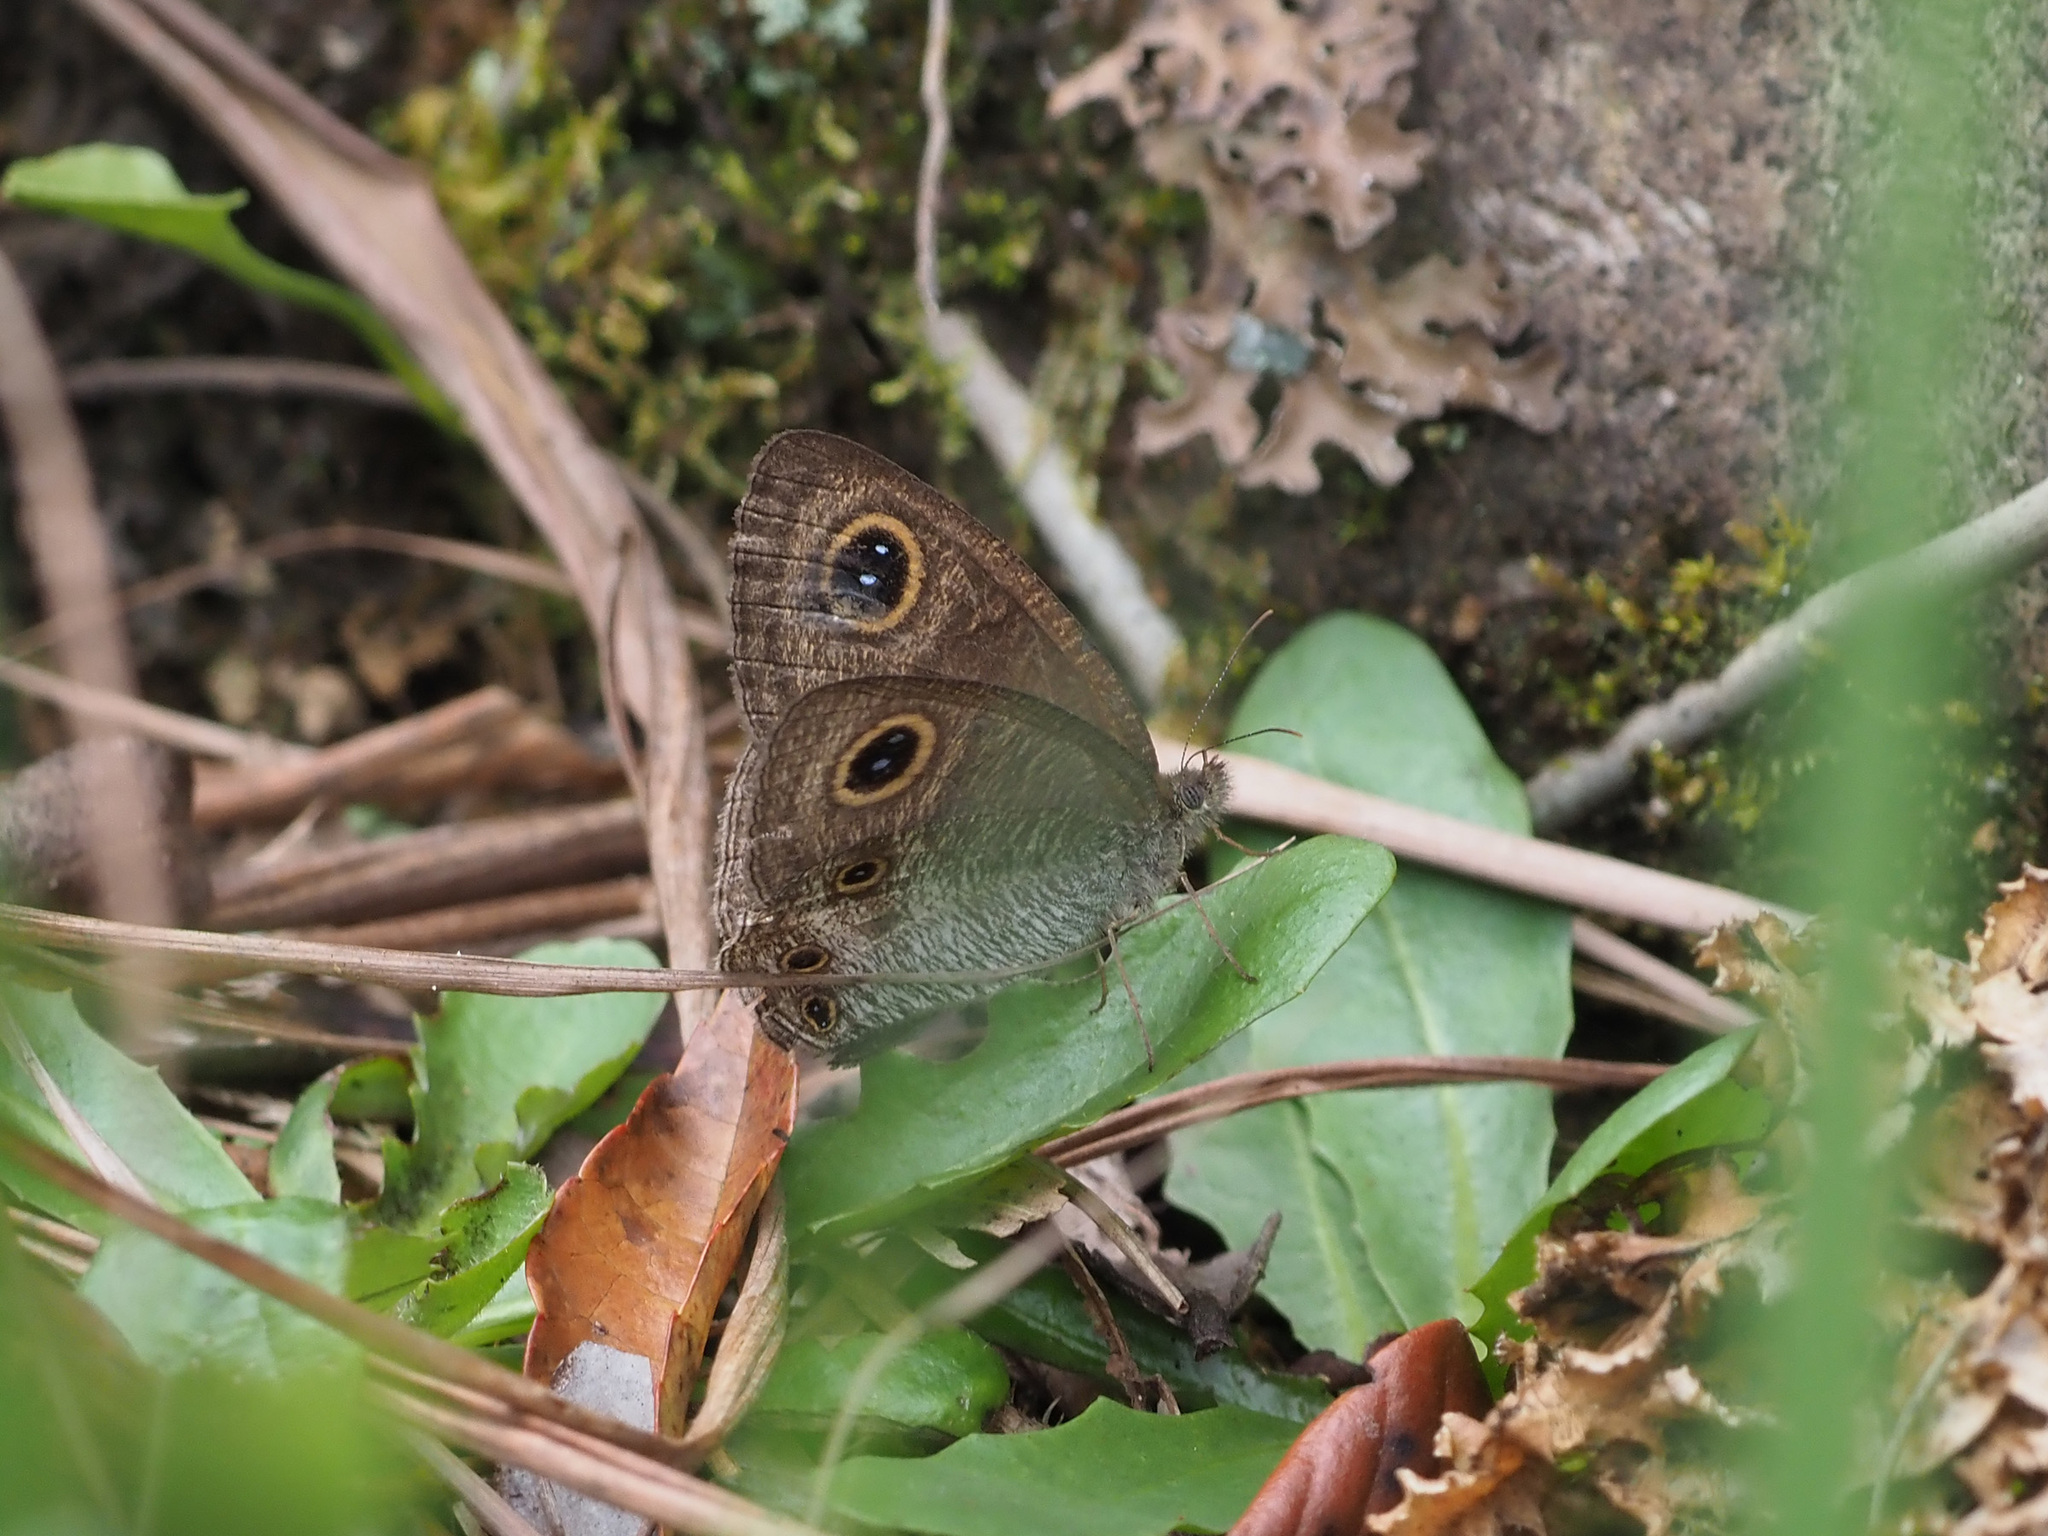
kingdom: Animalia
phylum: Arthropoda
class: Insecta
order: Lepidoptera
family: Nymphalidae
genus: Ypthima
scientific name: Ypthima pandocus
